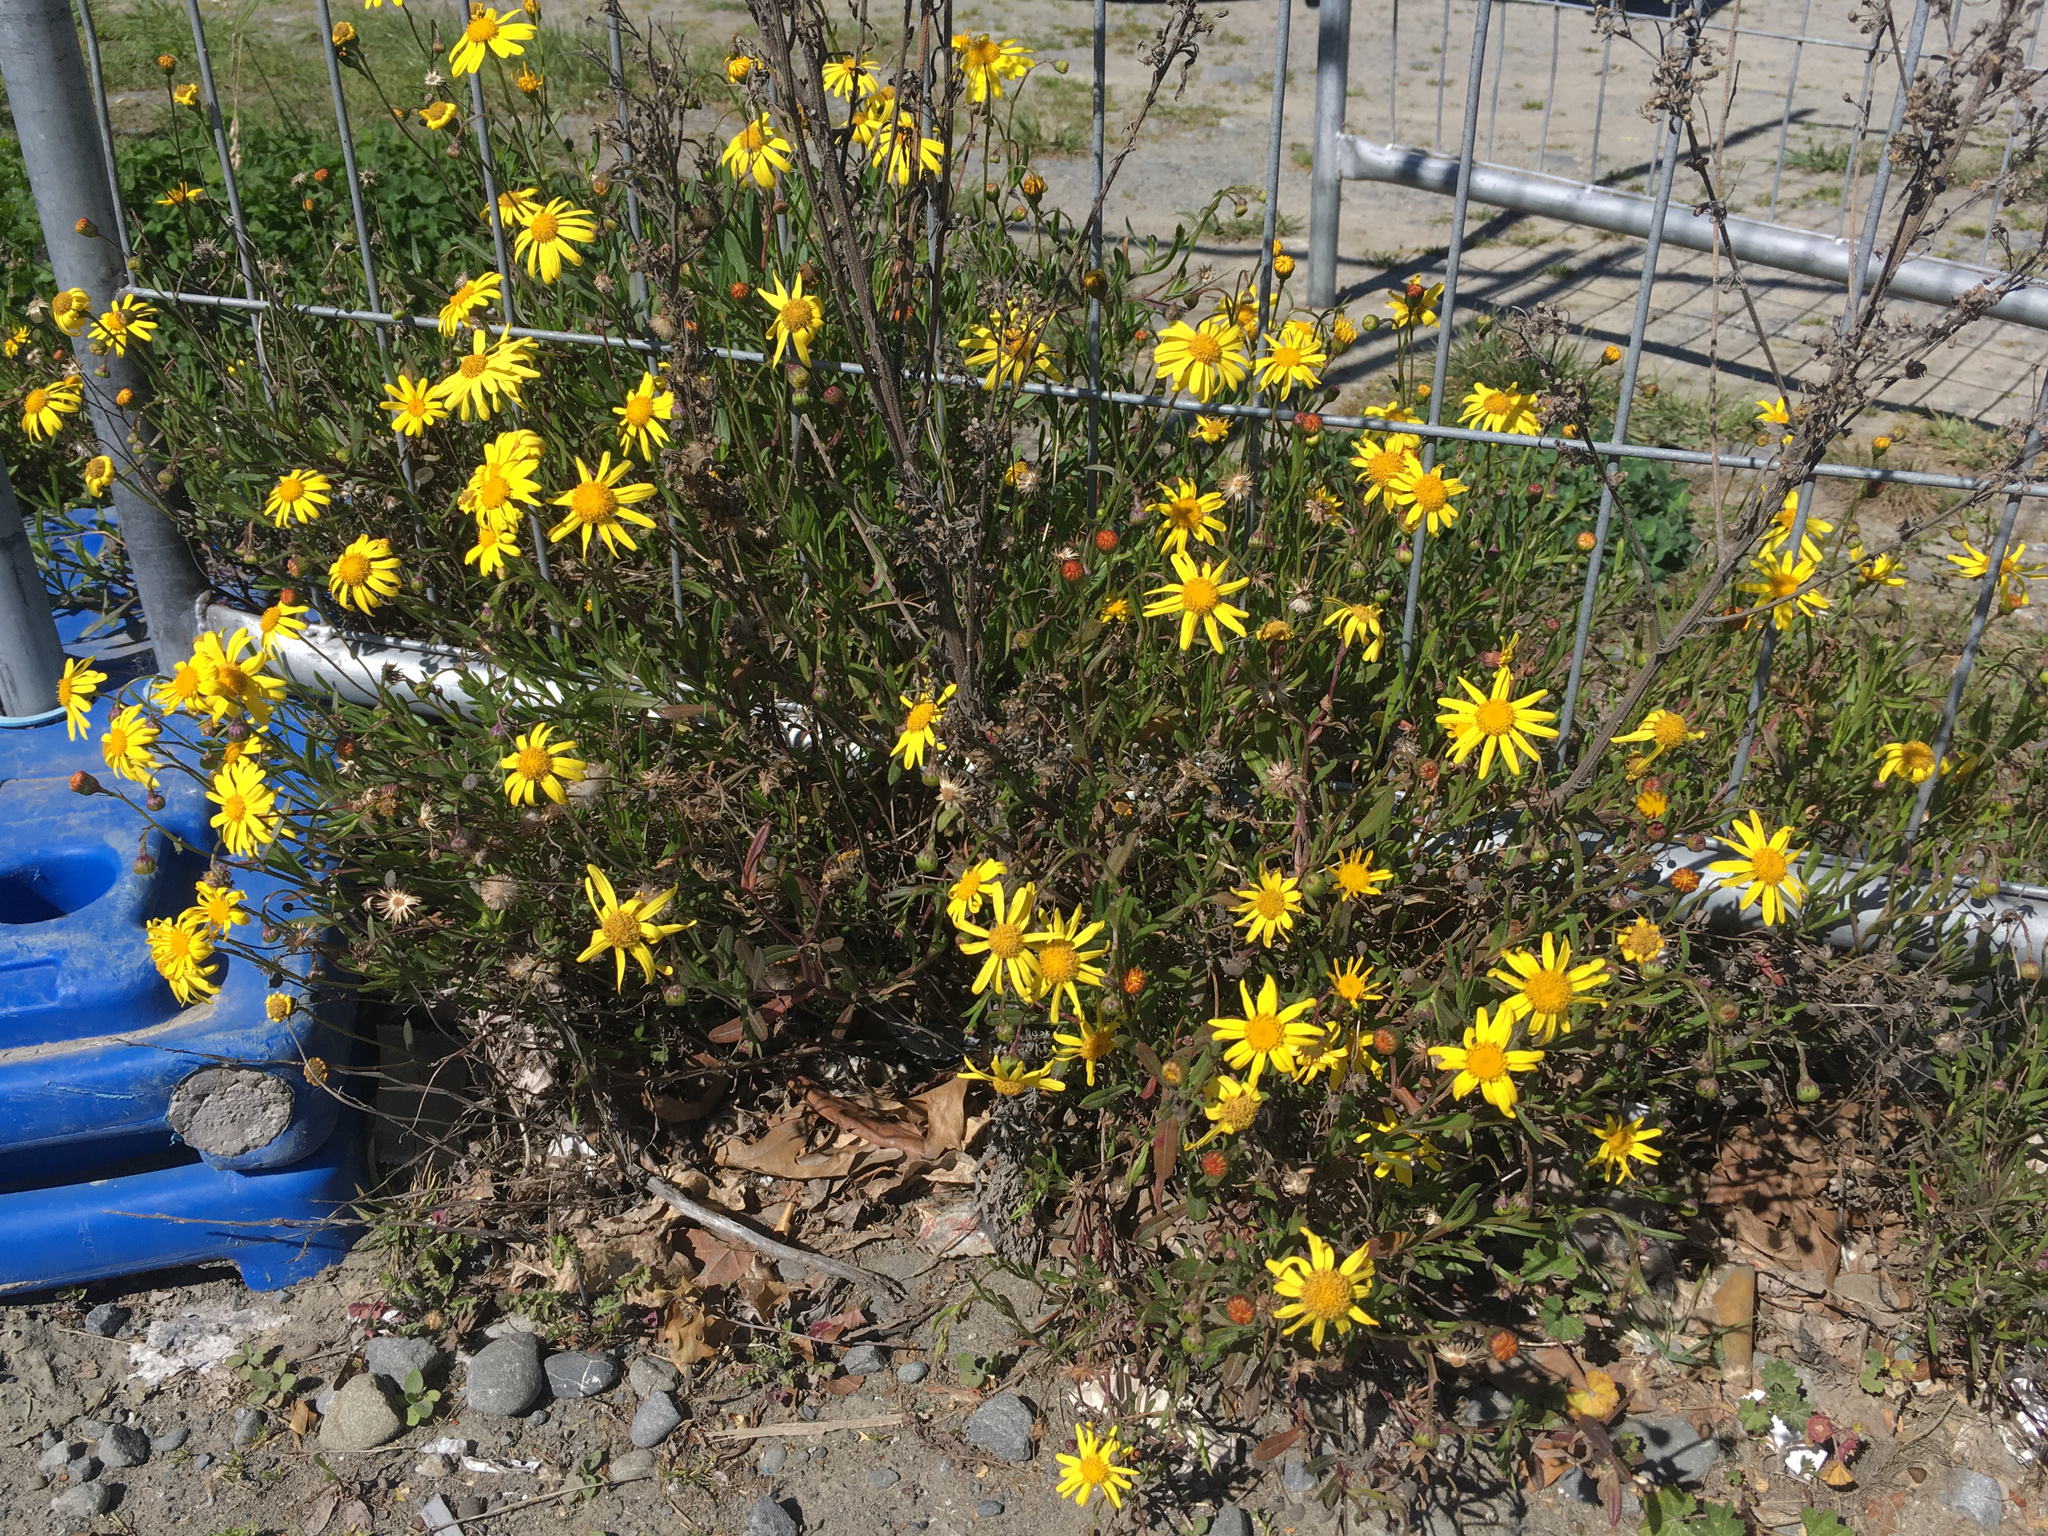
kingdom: Plantae
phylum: Tracheophyta
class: Magnoliopsida
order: Asterales
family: Asteraceae
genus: Senecio
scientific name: Senecio skirrhodon
